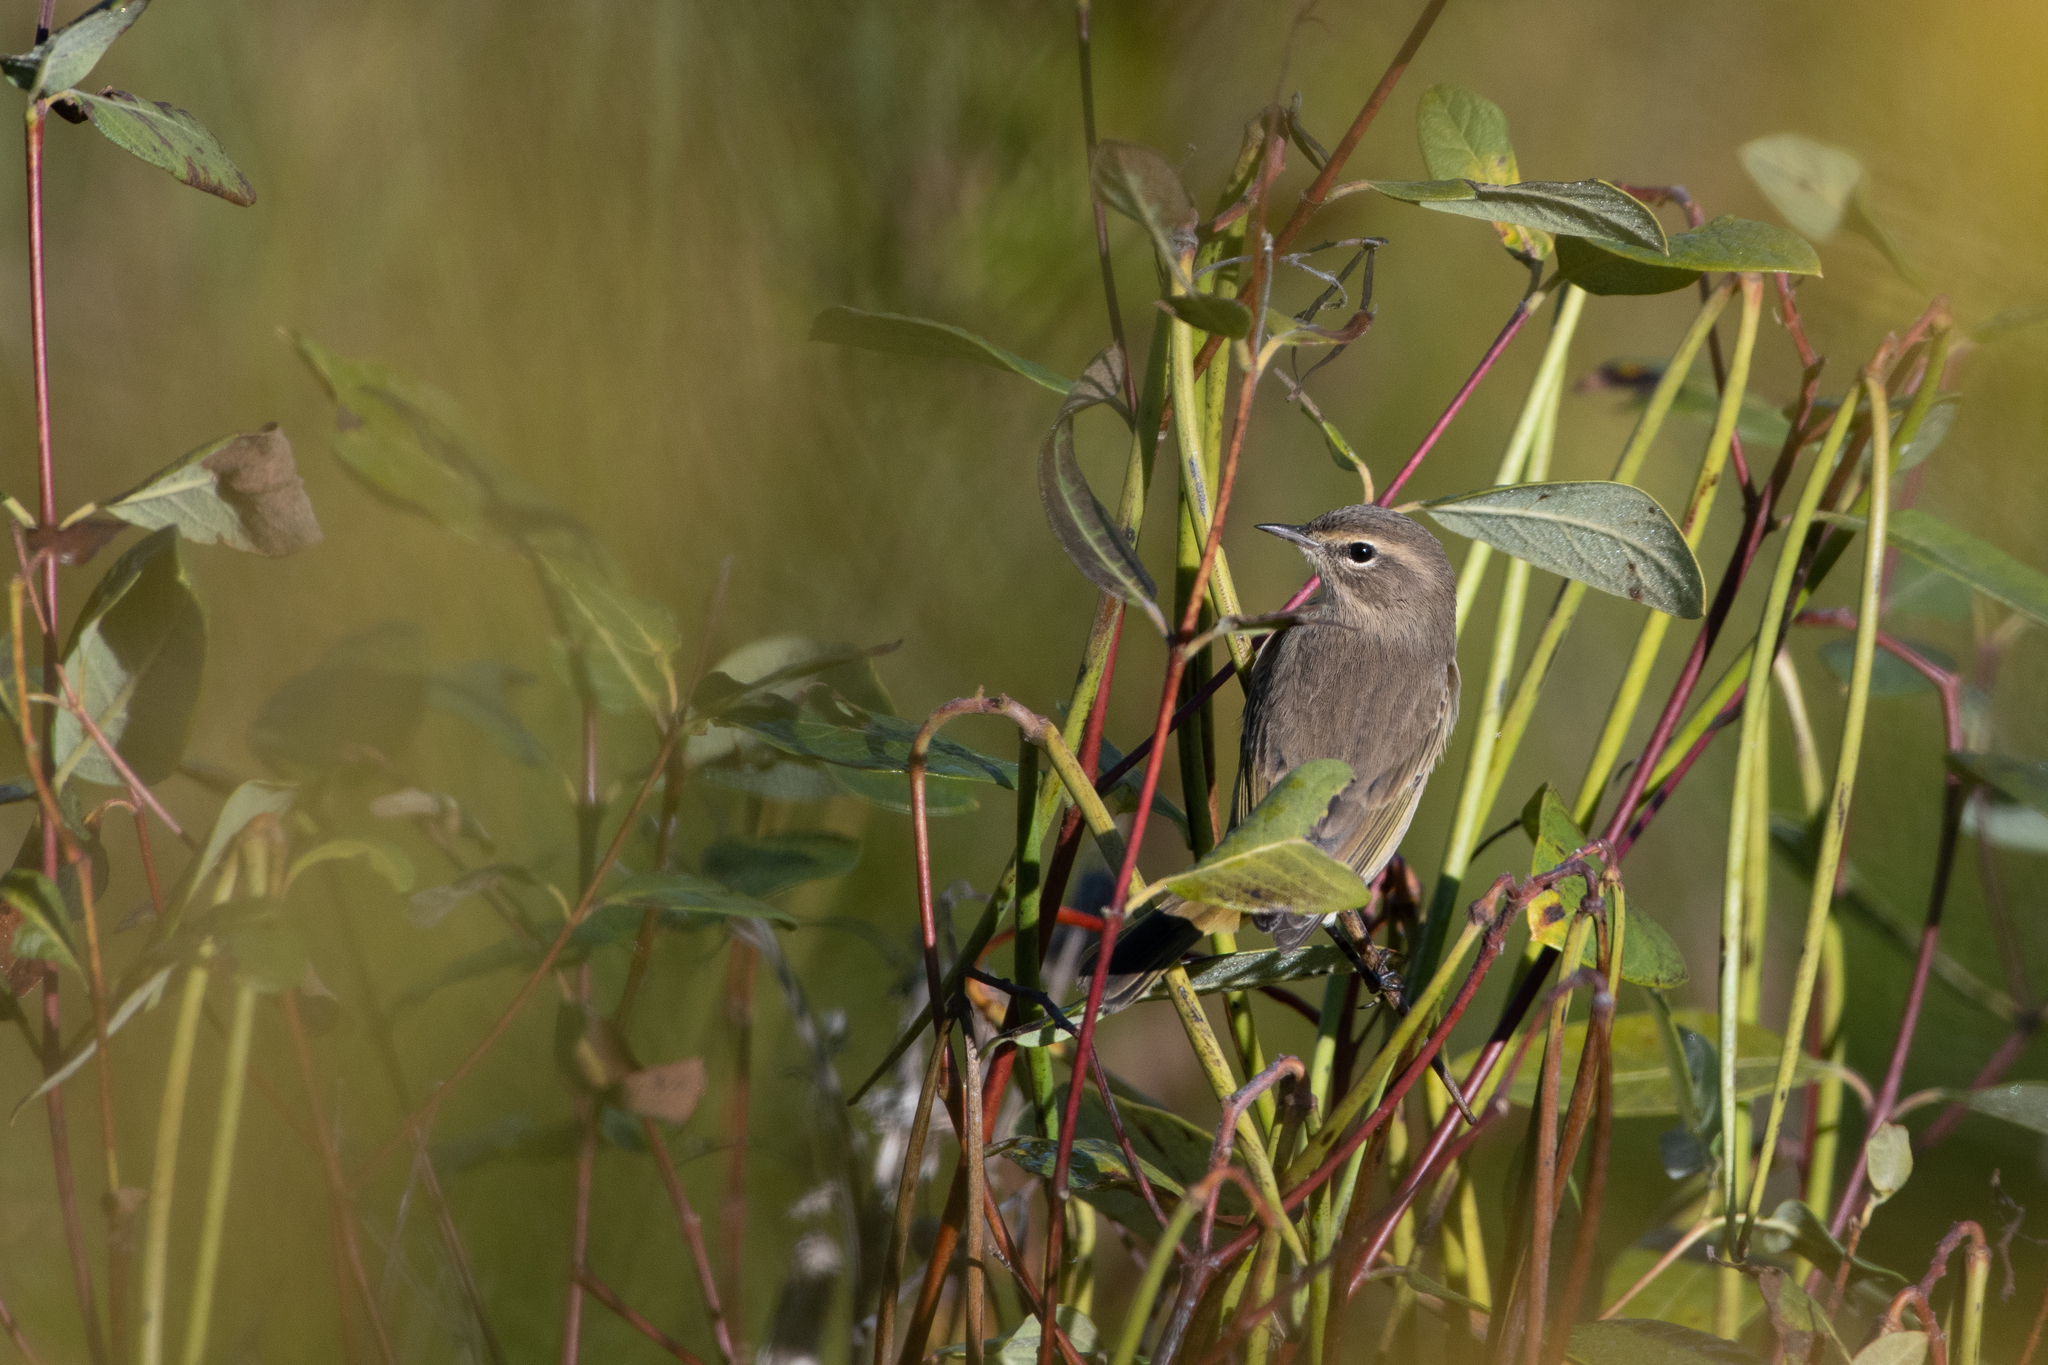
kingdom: Animalia
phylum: Chordata
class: Aves
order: Passeriformes
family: Parulidae
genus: Setophaga
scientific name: Setophaga palmarum
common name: Palm warbler
